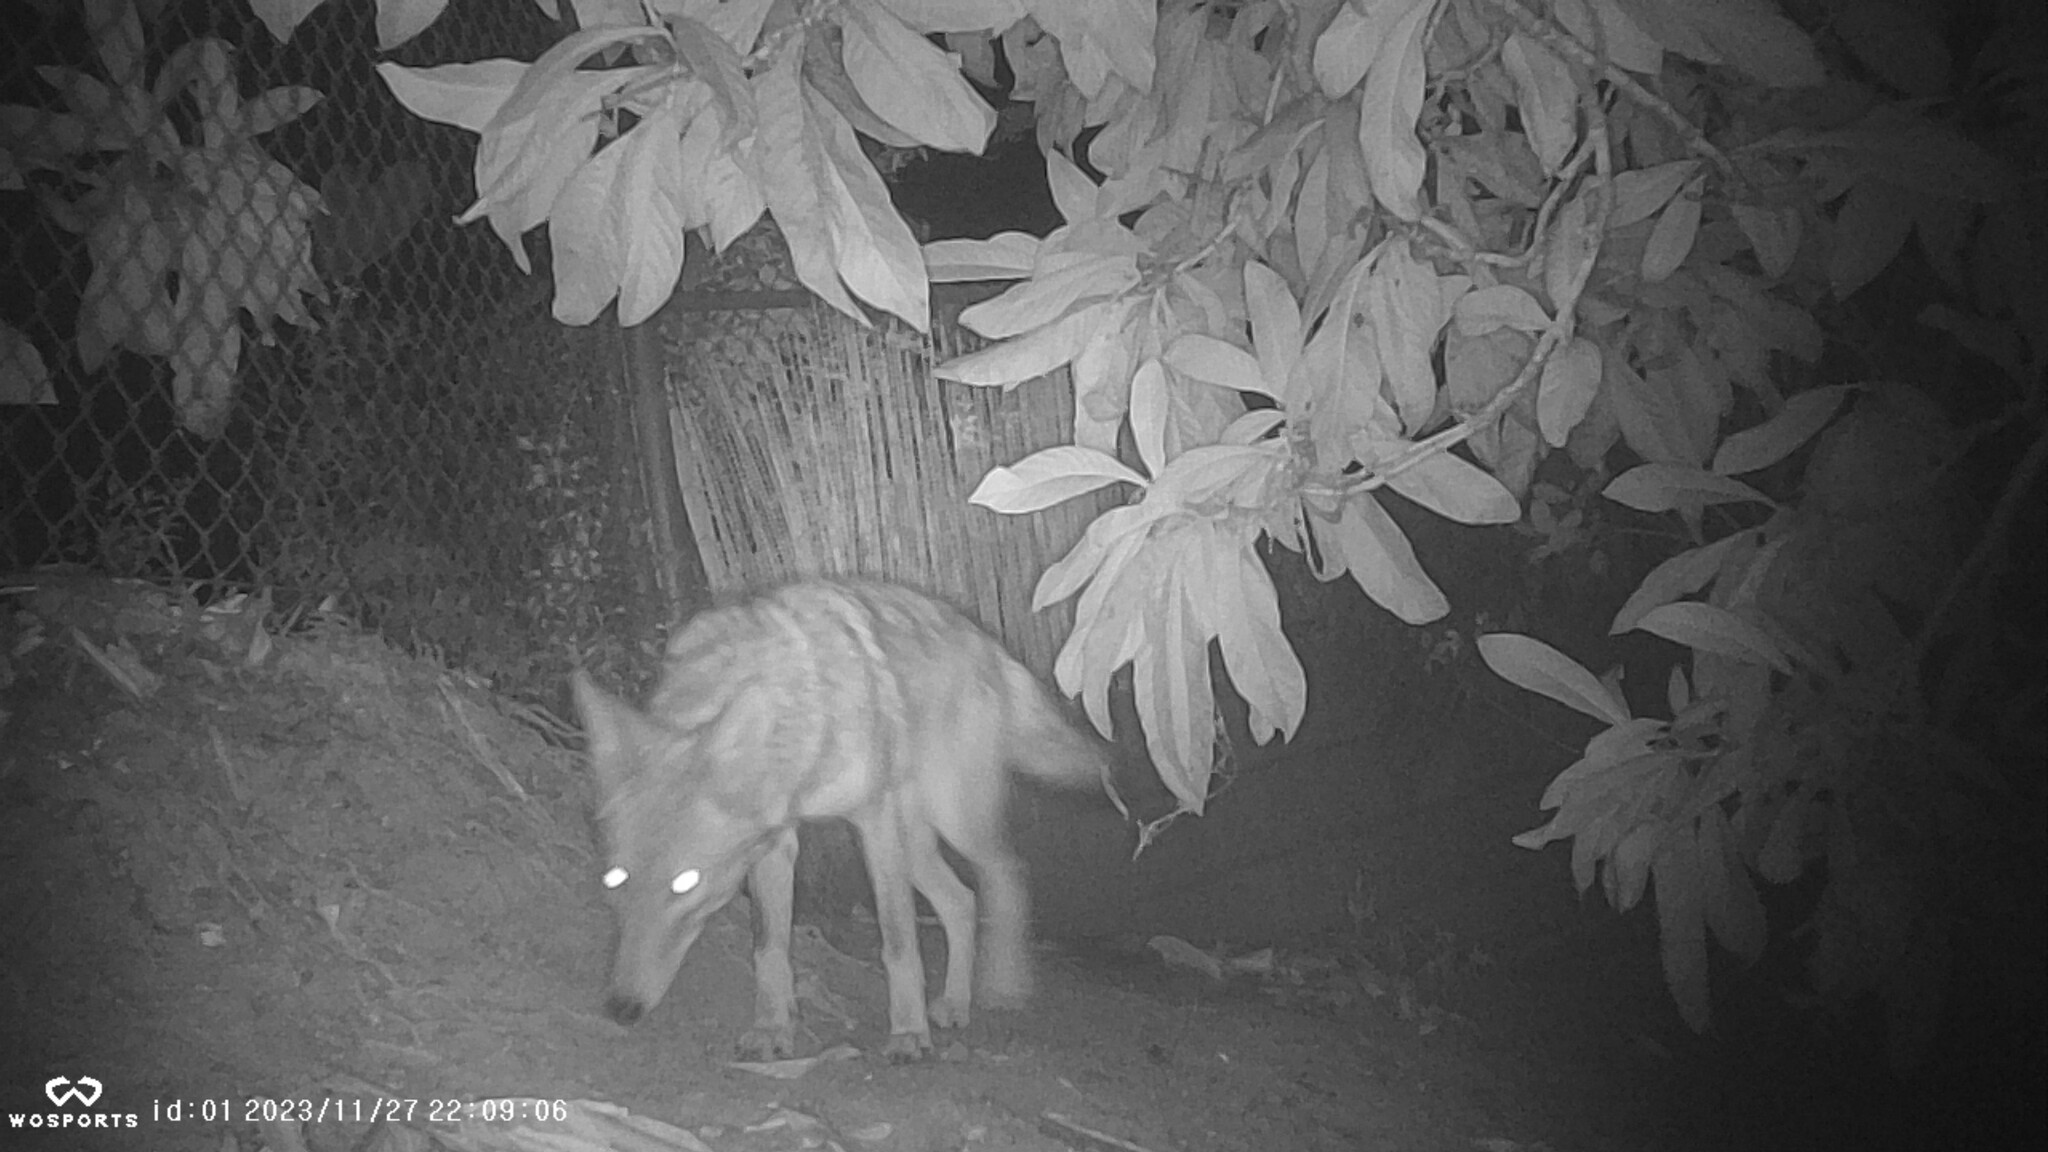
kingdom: Animalia
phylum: Chordata
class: Mammalia
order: Carnivora
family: Canidae
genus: Canis
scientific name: Canis latrans
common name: Coyote
